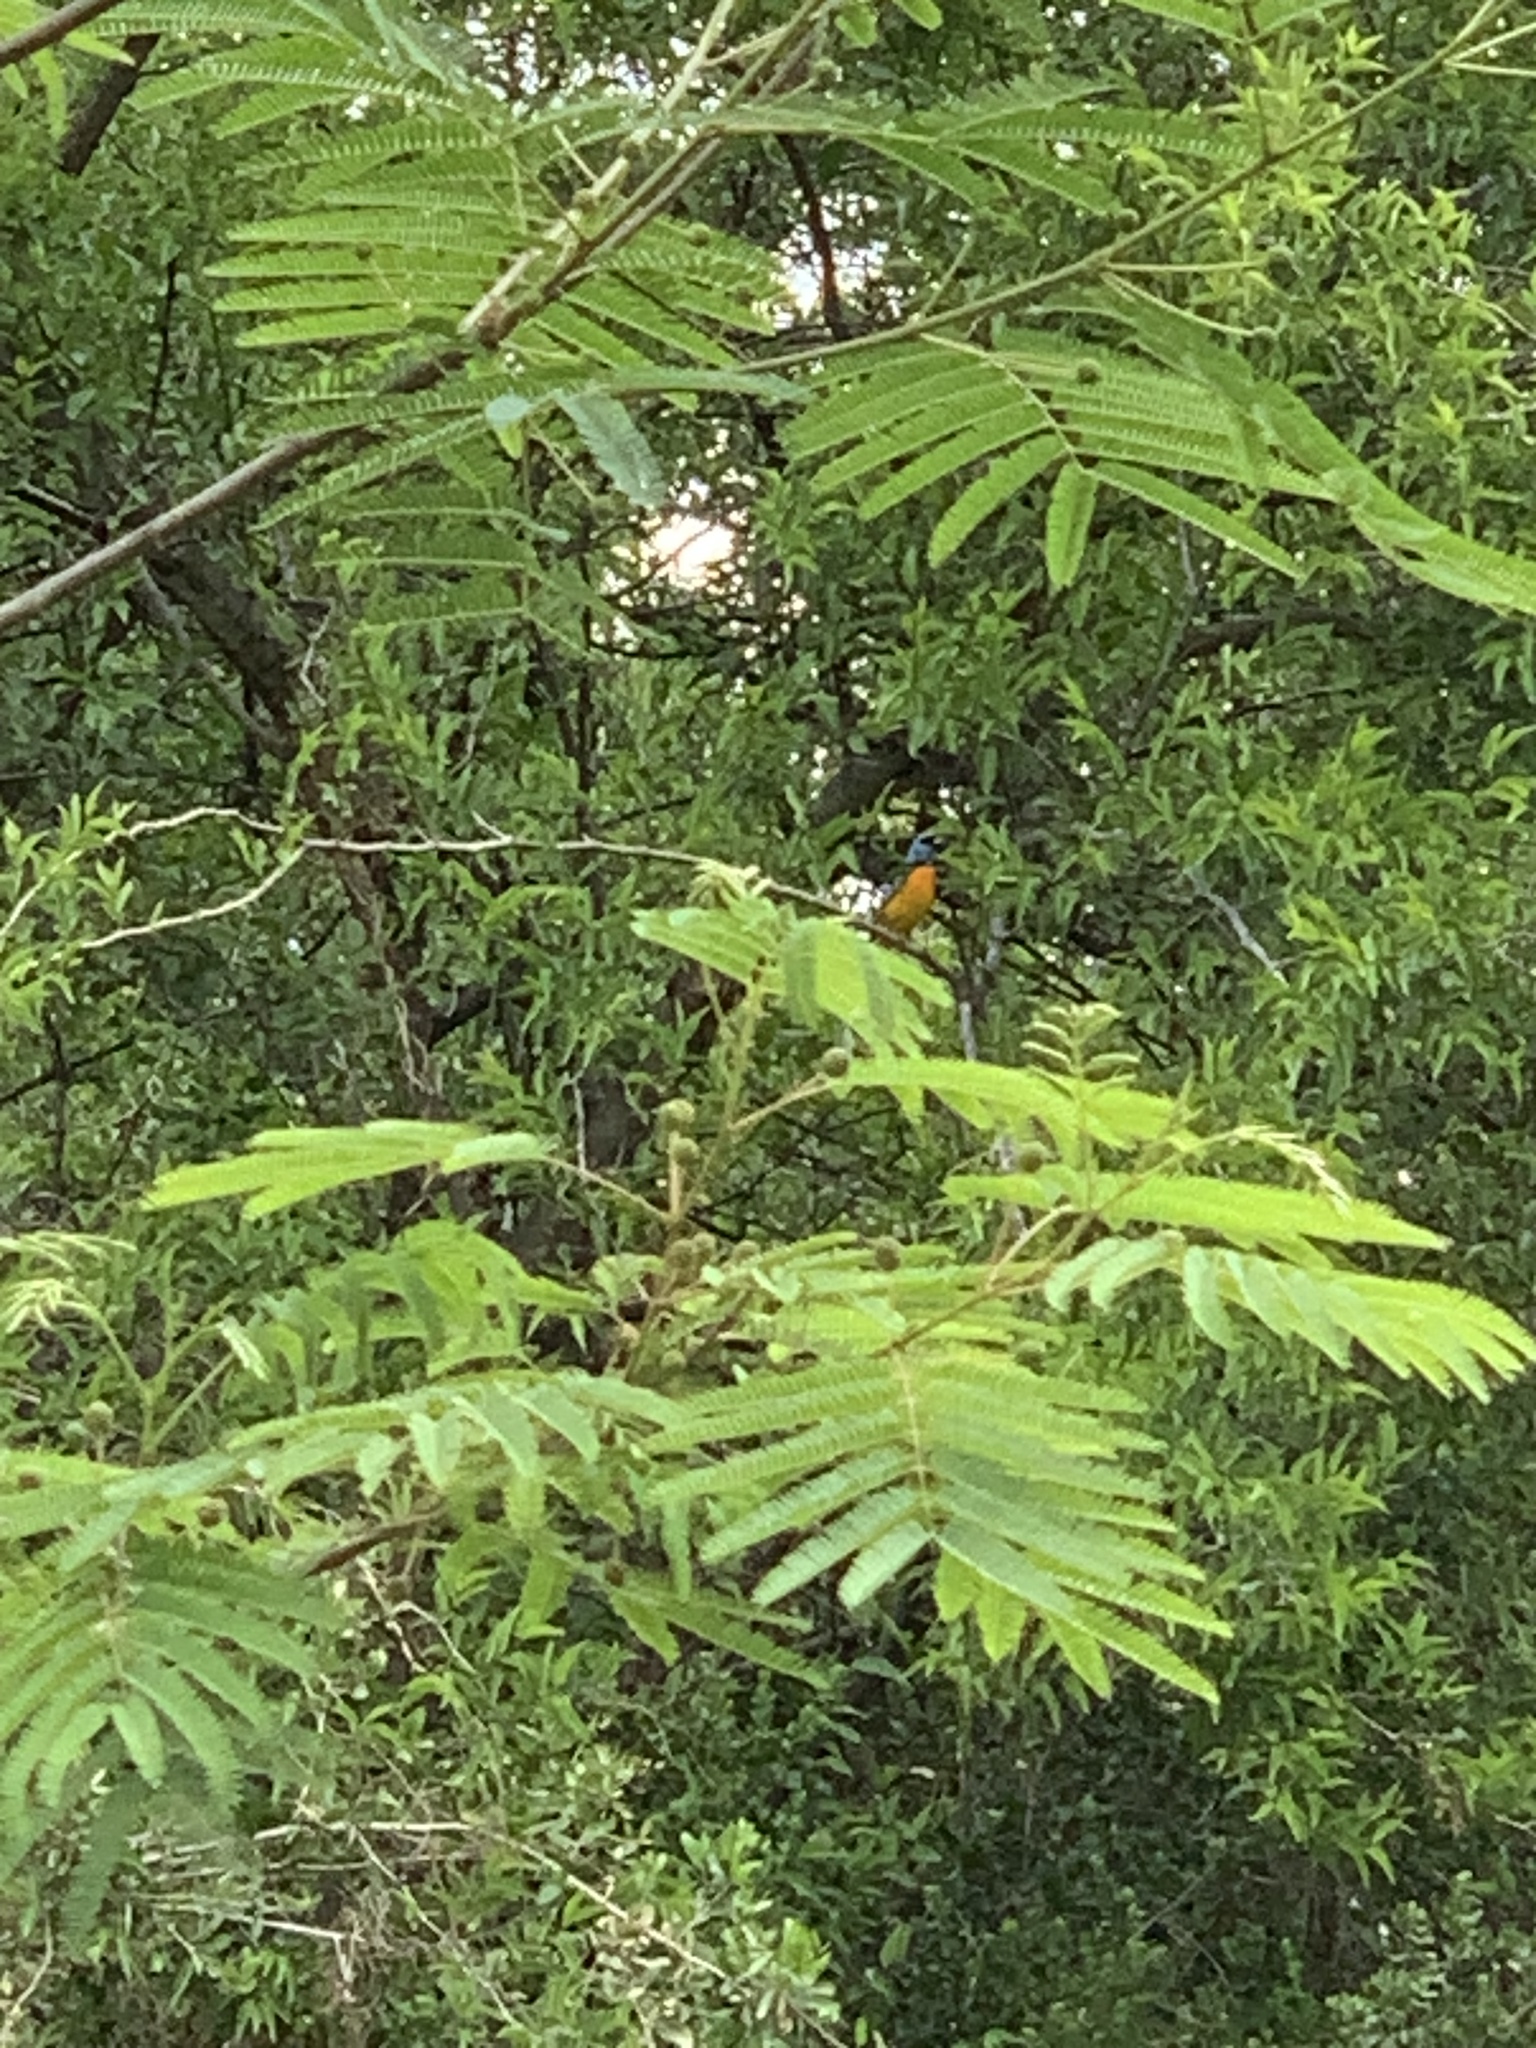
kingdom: Animalia
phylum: Chordata
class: Aves
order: Passeriformes
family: Thraupidae
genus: Rauenia
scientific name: Rauenia bonariensis
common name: Blue-and-yellow tanager
